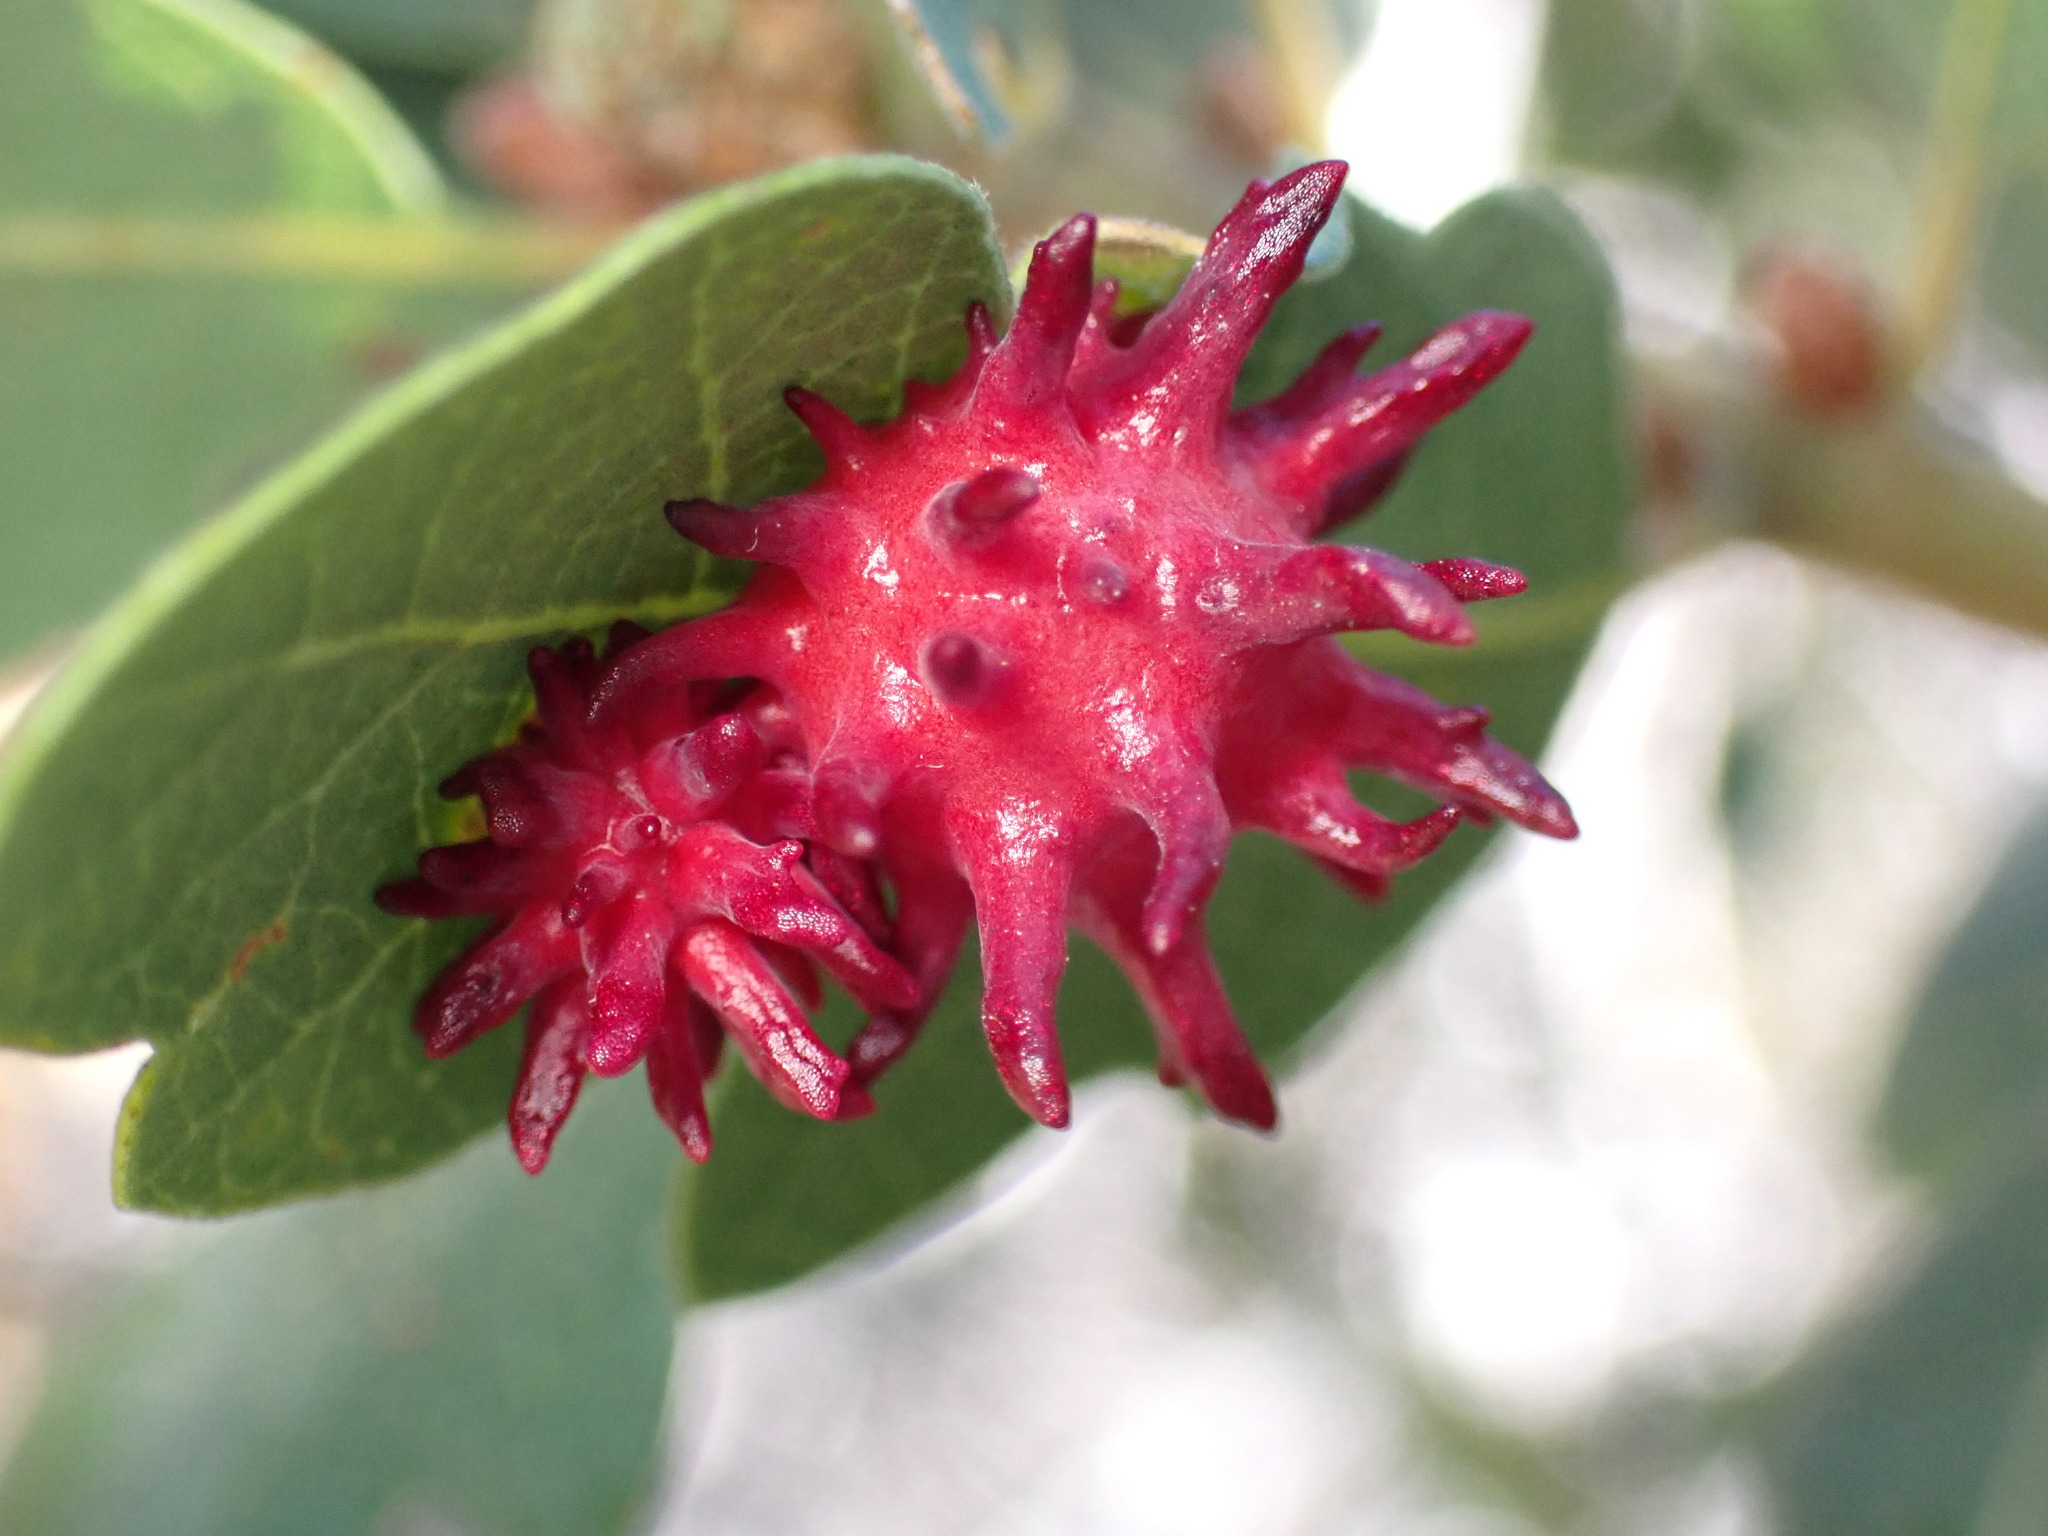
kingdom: Animalia
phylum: Arthropoda
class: Insecta
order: Hymenoptera
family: Cynipidae
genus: Cynips
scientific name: Cynips
